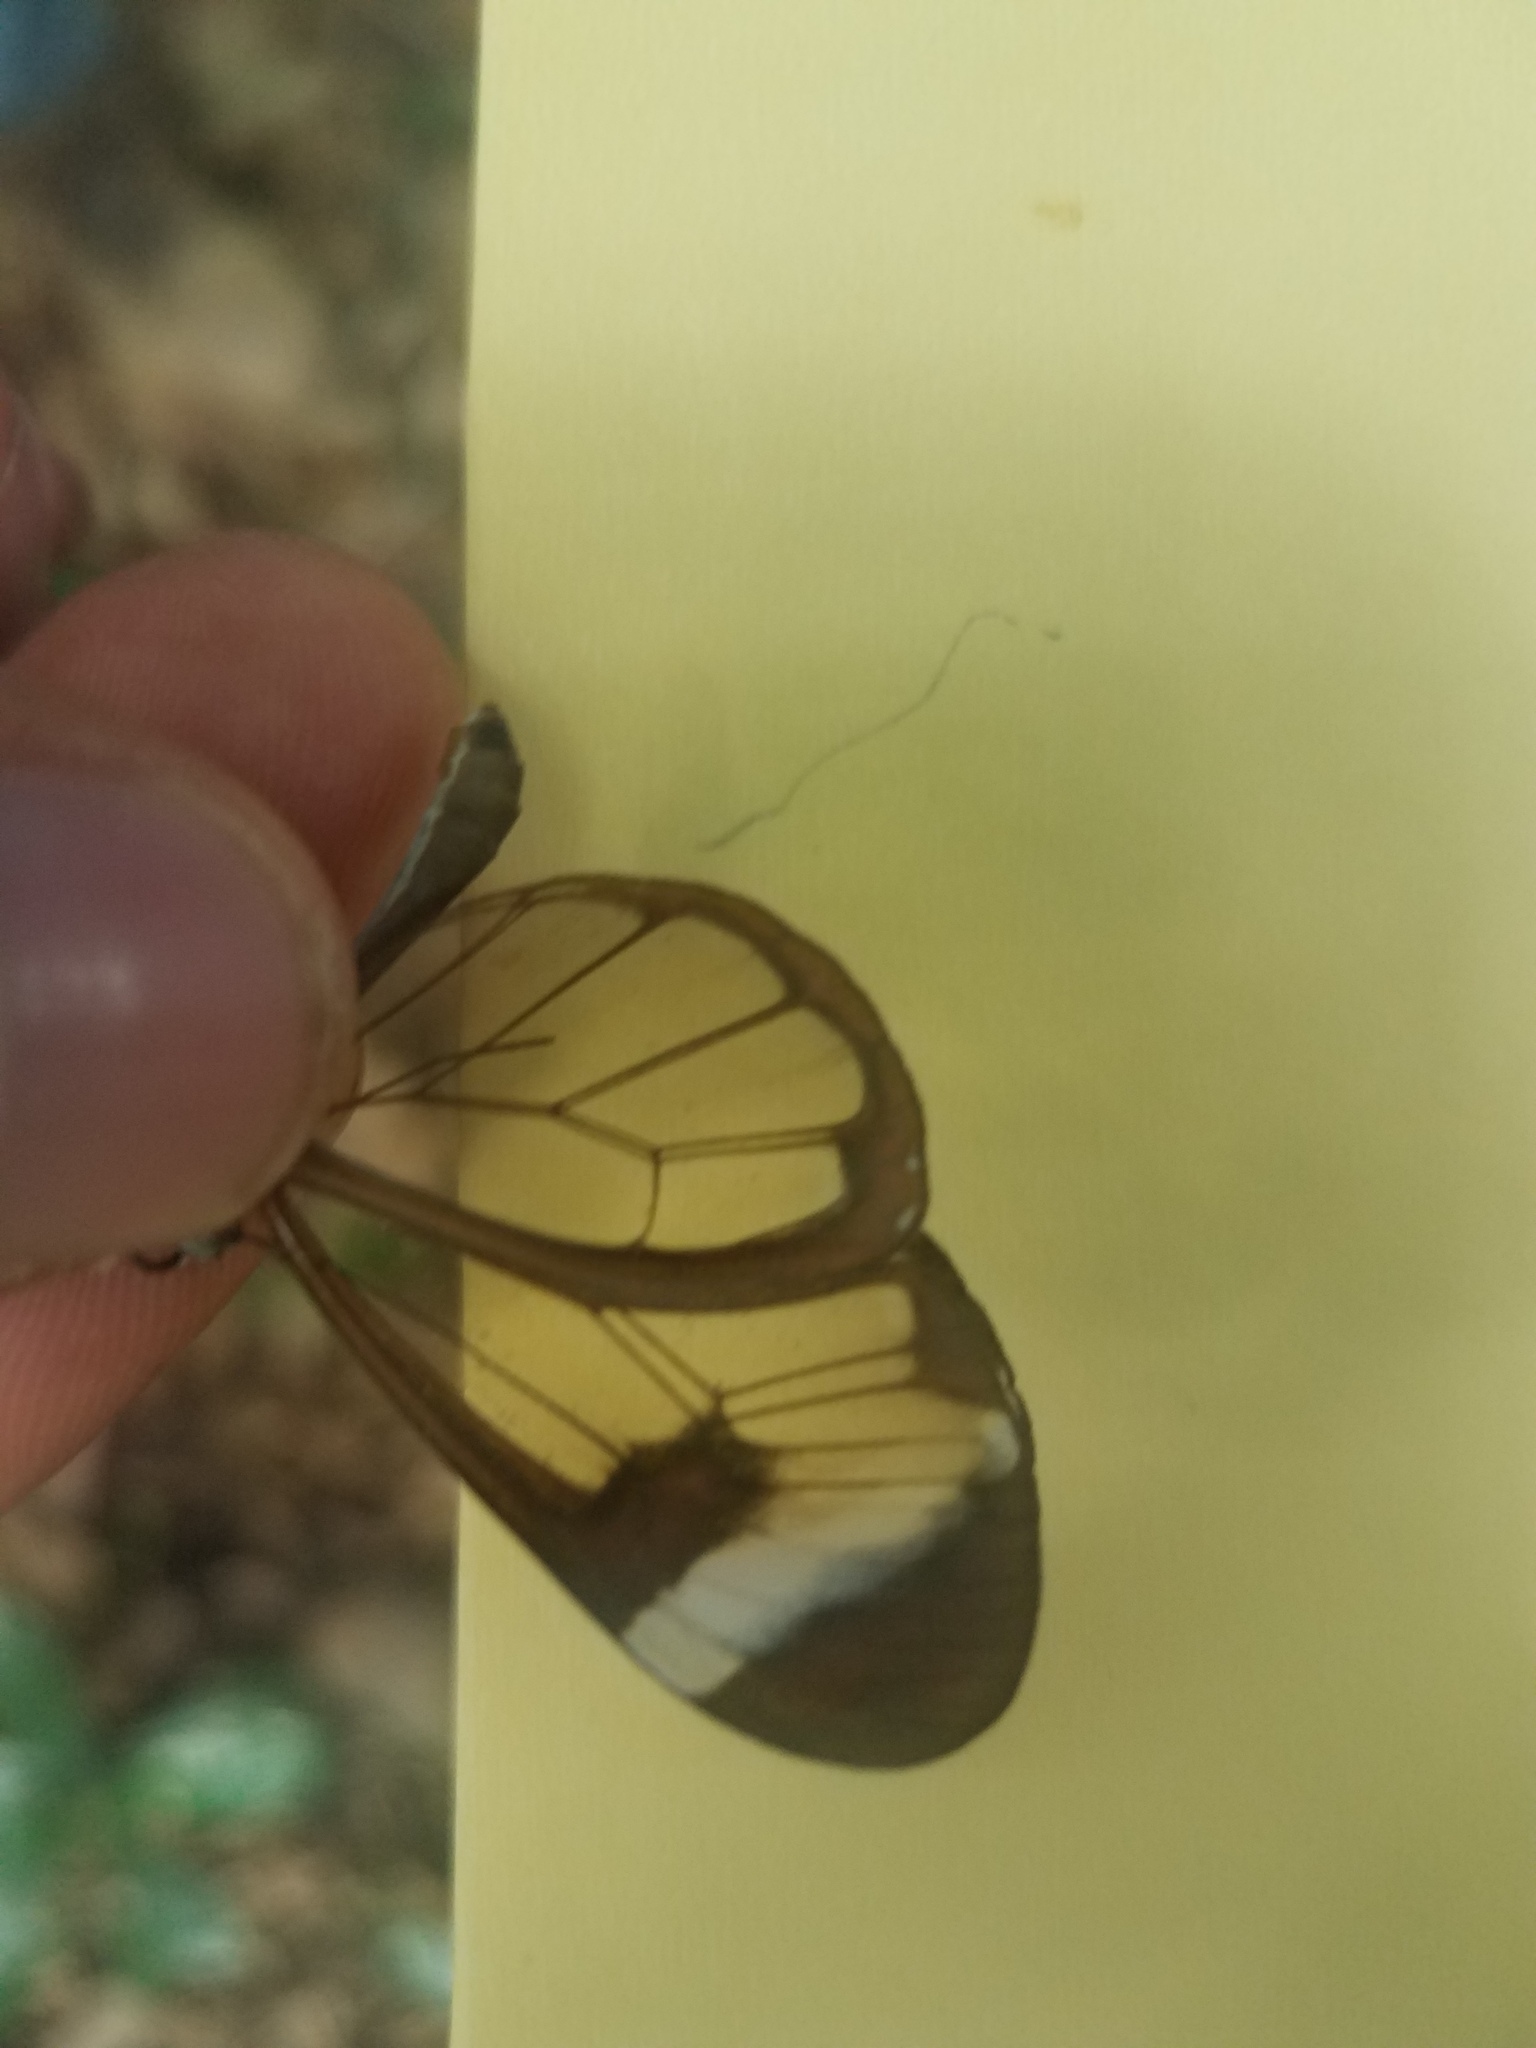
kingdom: Animalia
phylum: Arthropoda
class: Insecta
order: Lepidoptera
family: Nymphalidae
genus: Greta
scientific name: Greta morgane
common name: Thick-tipped greta
